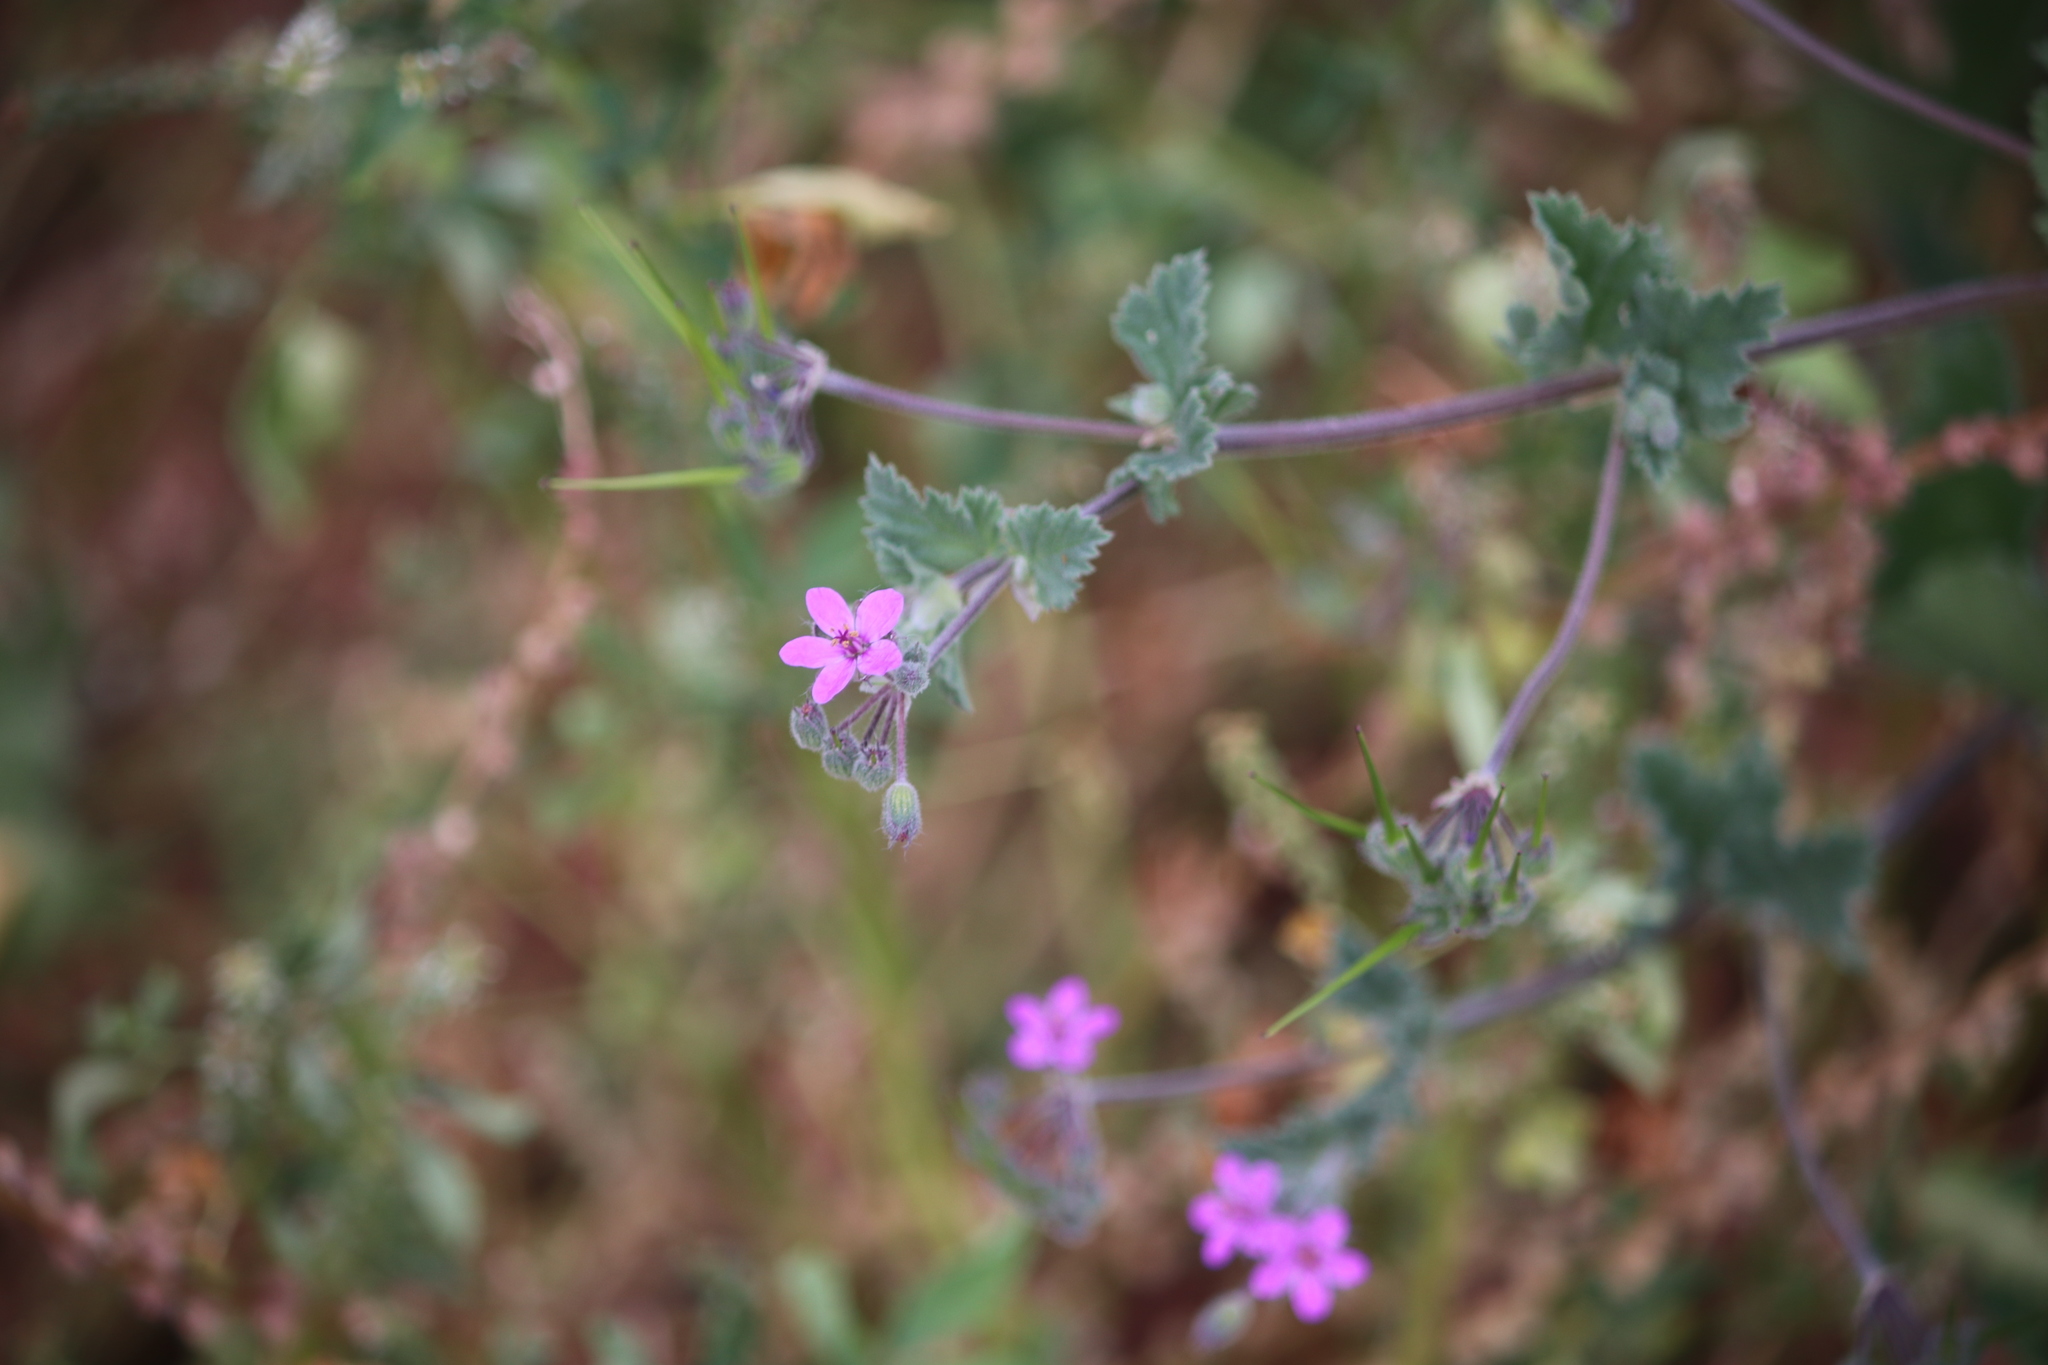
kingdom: Plantae
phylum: Tracheophyta
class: Magnoliopsida
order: Geraniales
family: Geraniaceae
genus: Erodium
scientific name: Erodium malacoides
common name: Soft stork's-bill
